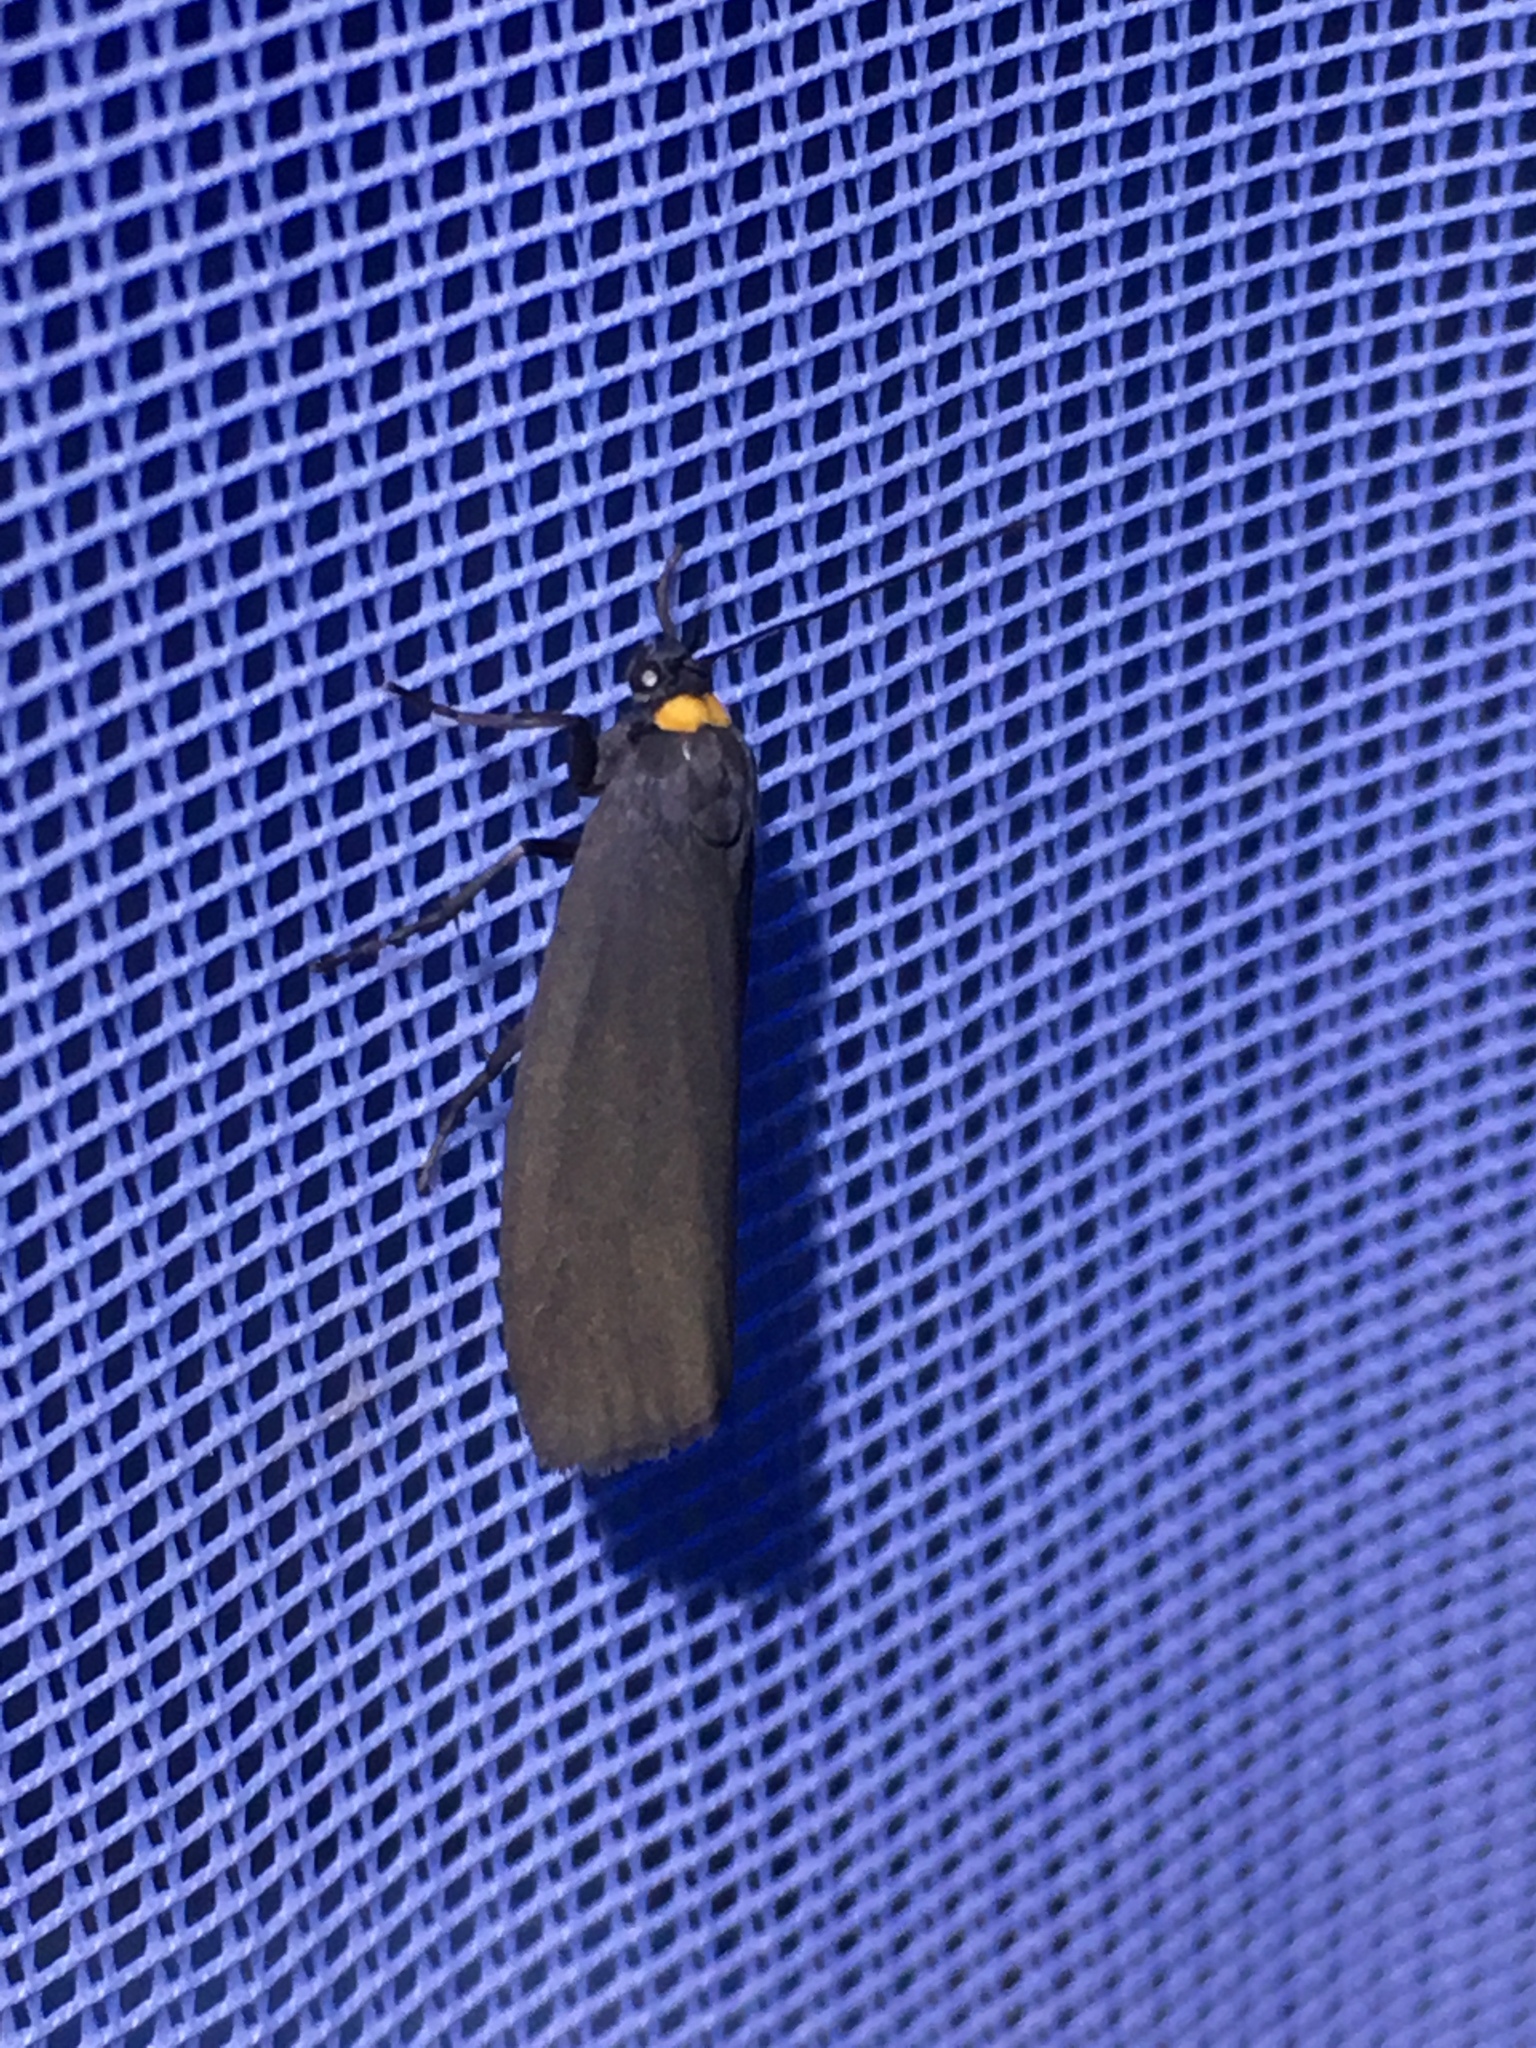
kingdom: Animalia
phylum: Arthropoda
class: Insecta
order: Lepidoptera
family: Erebidae
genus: Atolmis
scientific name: Atolmis rubricollis
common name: Red-necked footman
